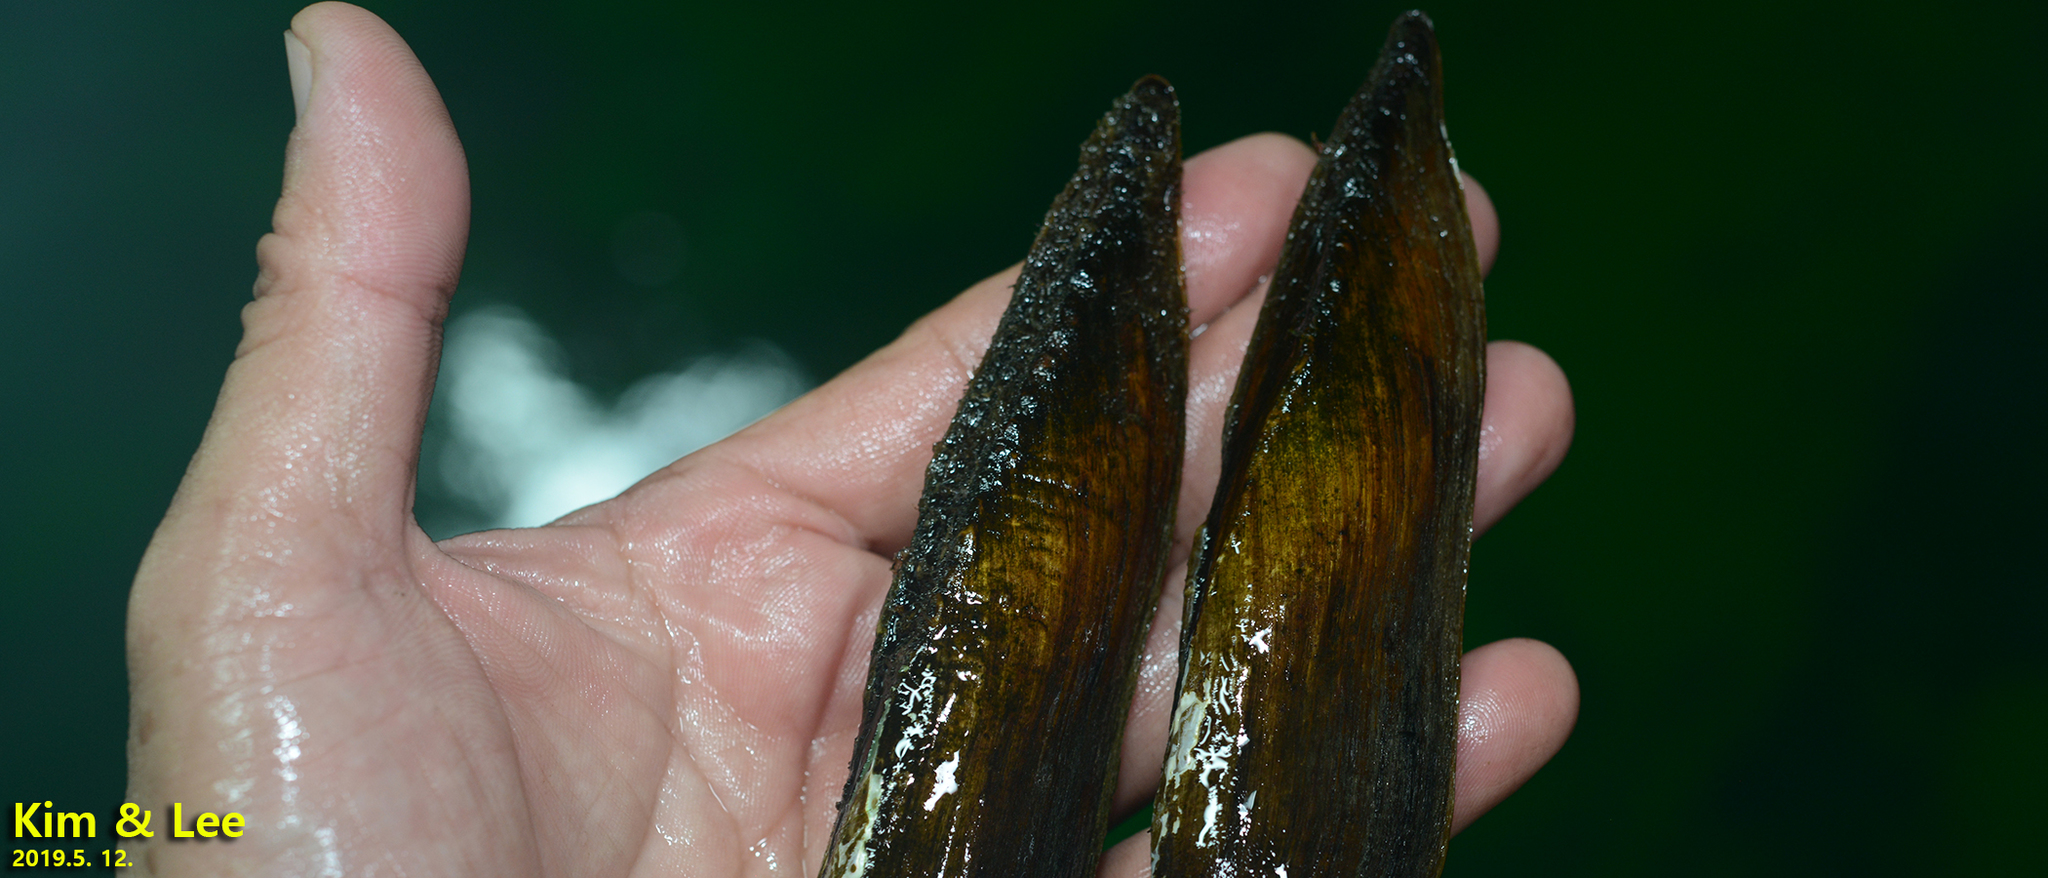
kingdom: Animalia
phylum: Mollusca
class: Bivalvia
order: Unionida
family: Unionidae
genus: Lanceolaria
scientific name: Lanceolaria acrorrhyncha
